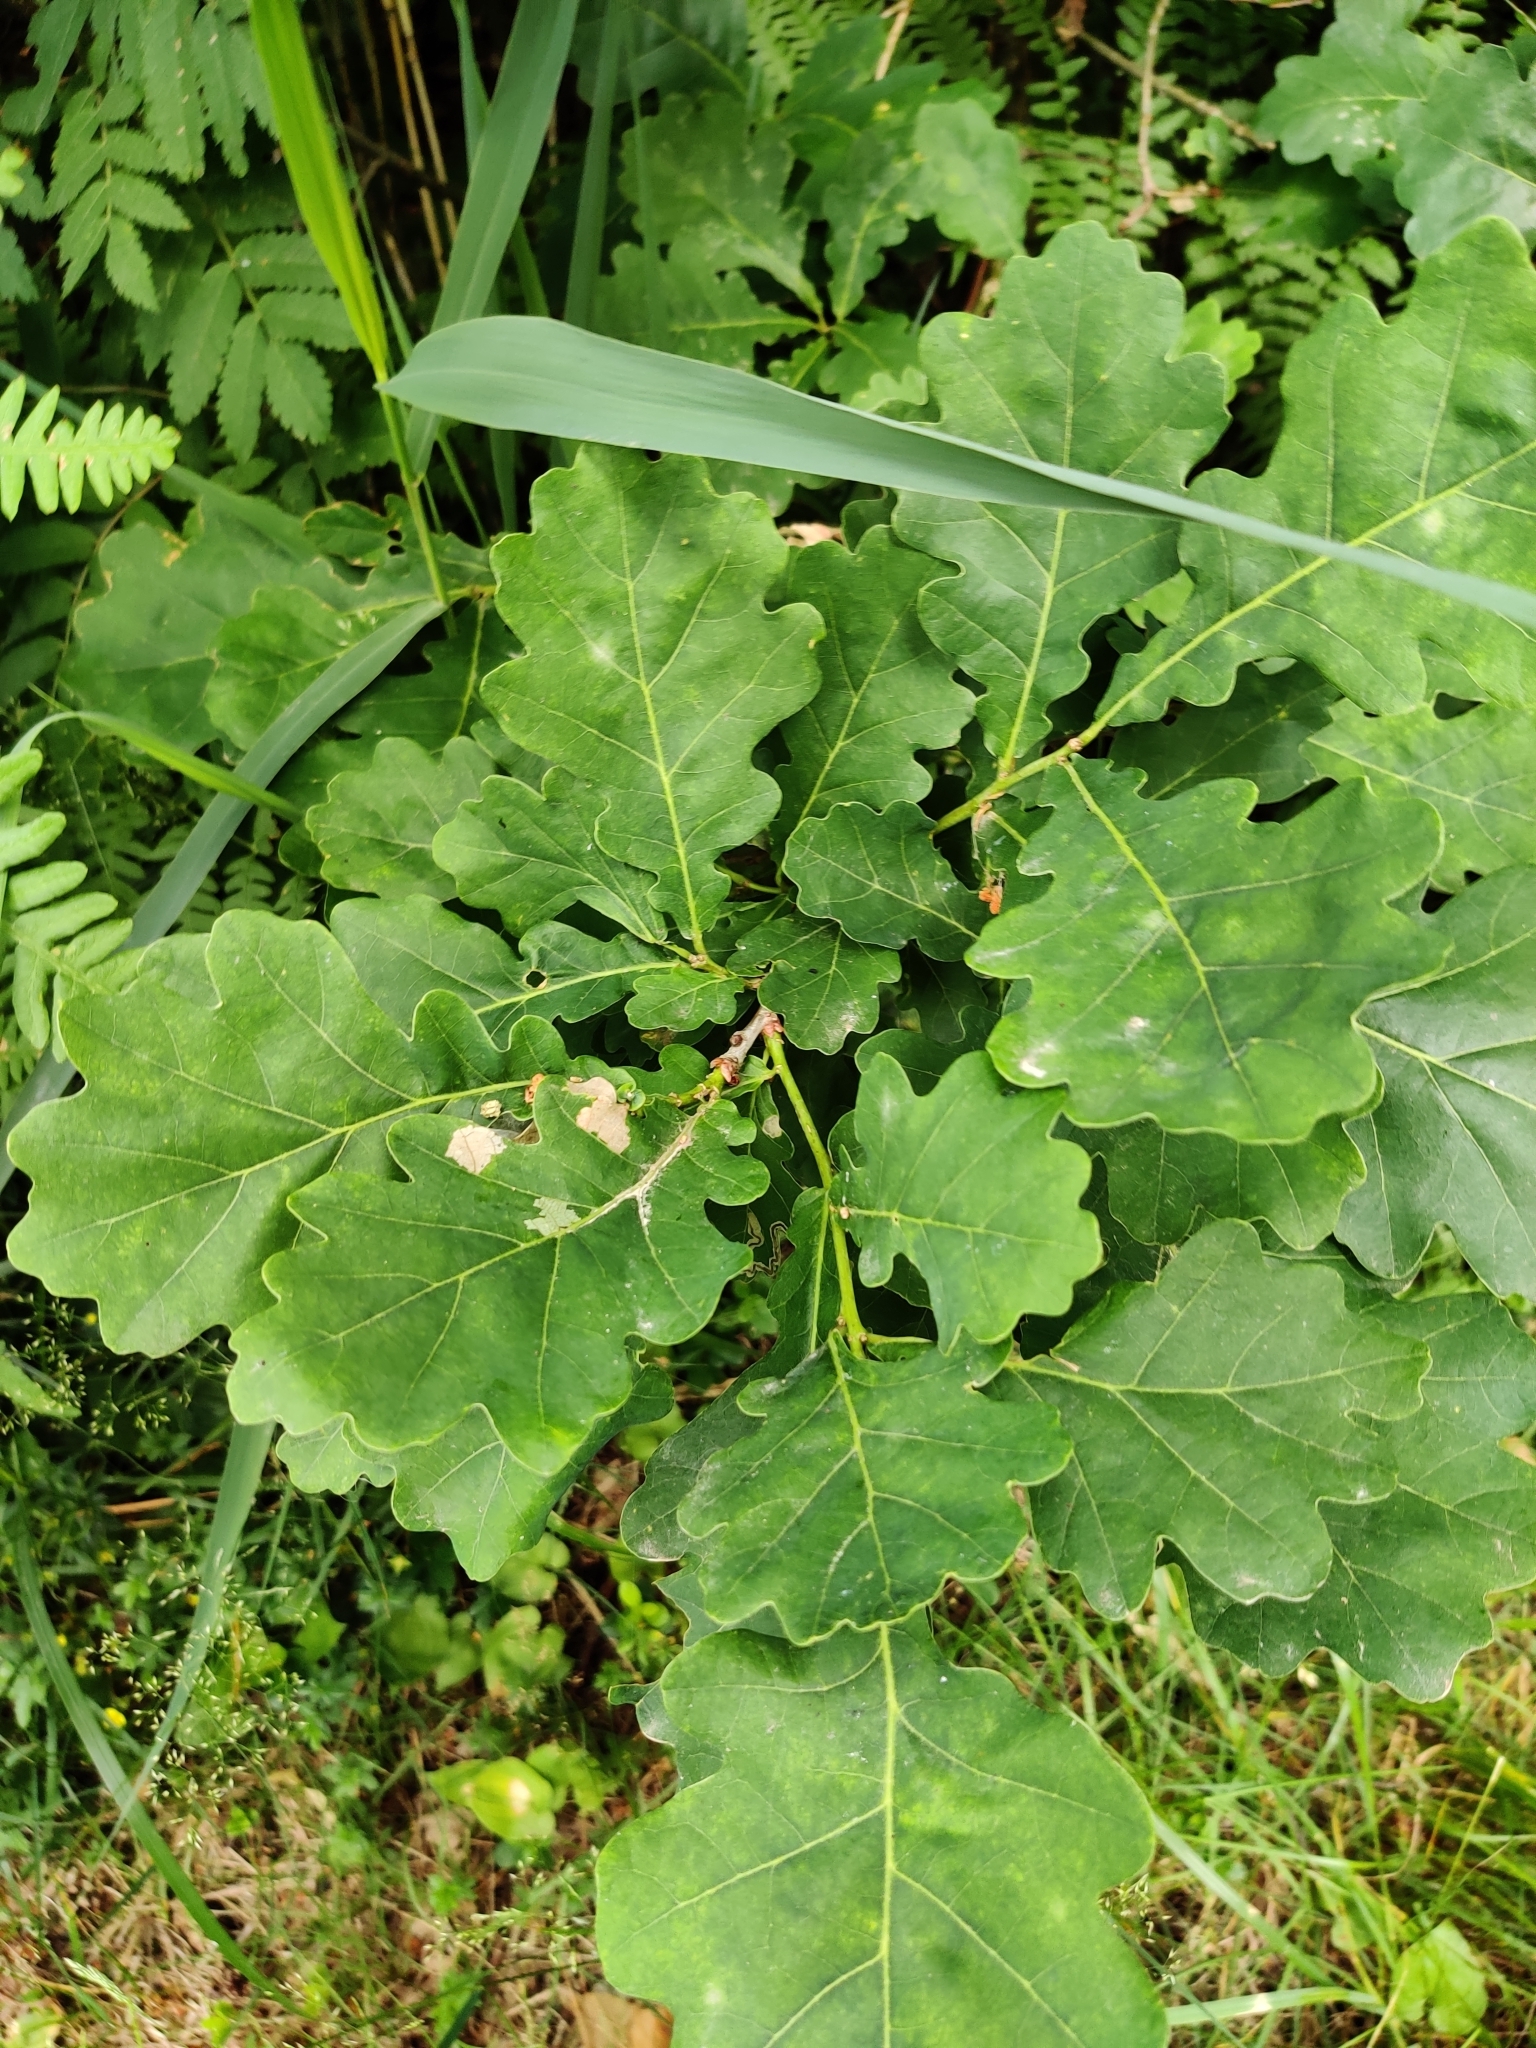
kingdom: Plantae
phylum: Tracheophyta
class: Magnoliopsida
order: Fagales
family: Fagaceae
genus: Quercus
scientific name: Quercus robur
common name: Pedunculate oak
